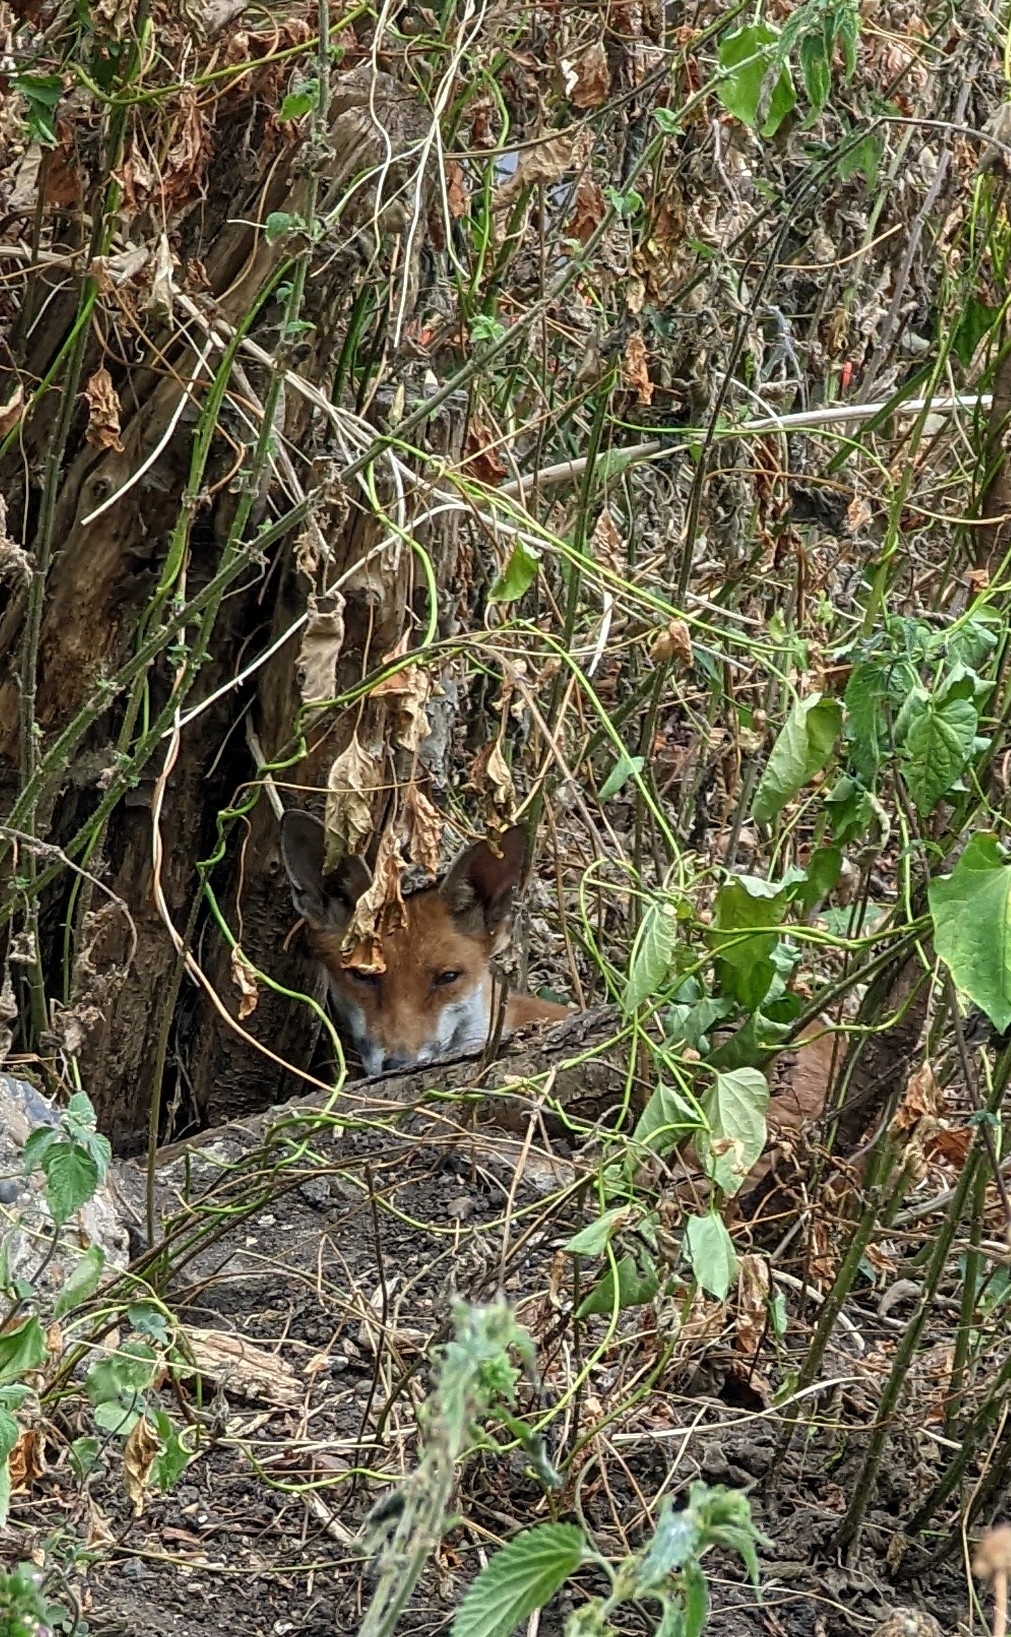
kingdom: Animalia
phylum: Chordata
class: Mammalia
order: Carnivora
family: Canidae
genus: Vulpes
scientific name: Vulpes vulpes
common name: Red fox
